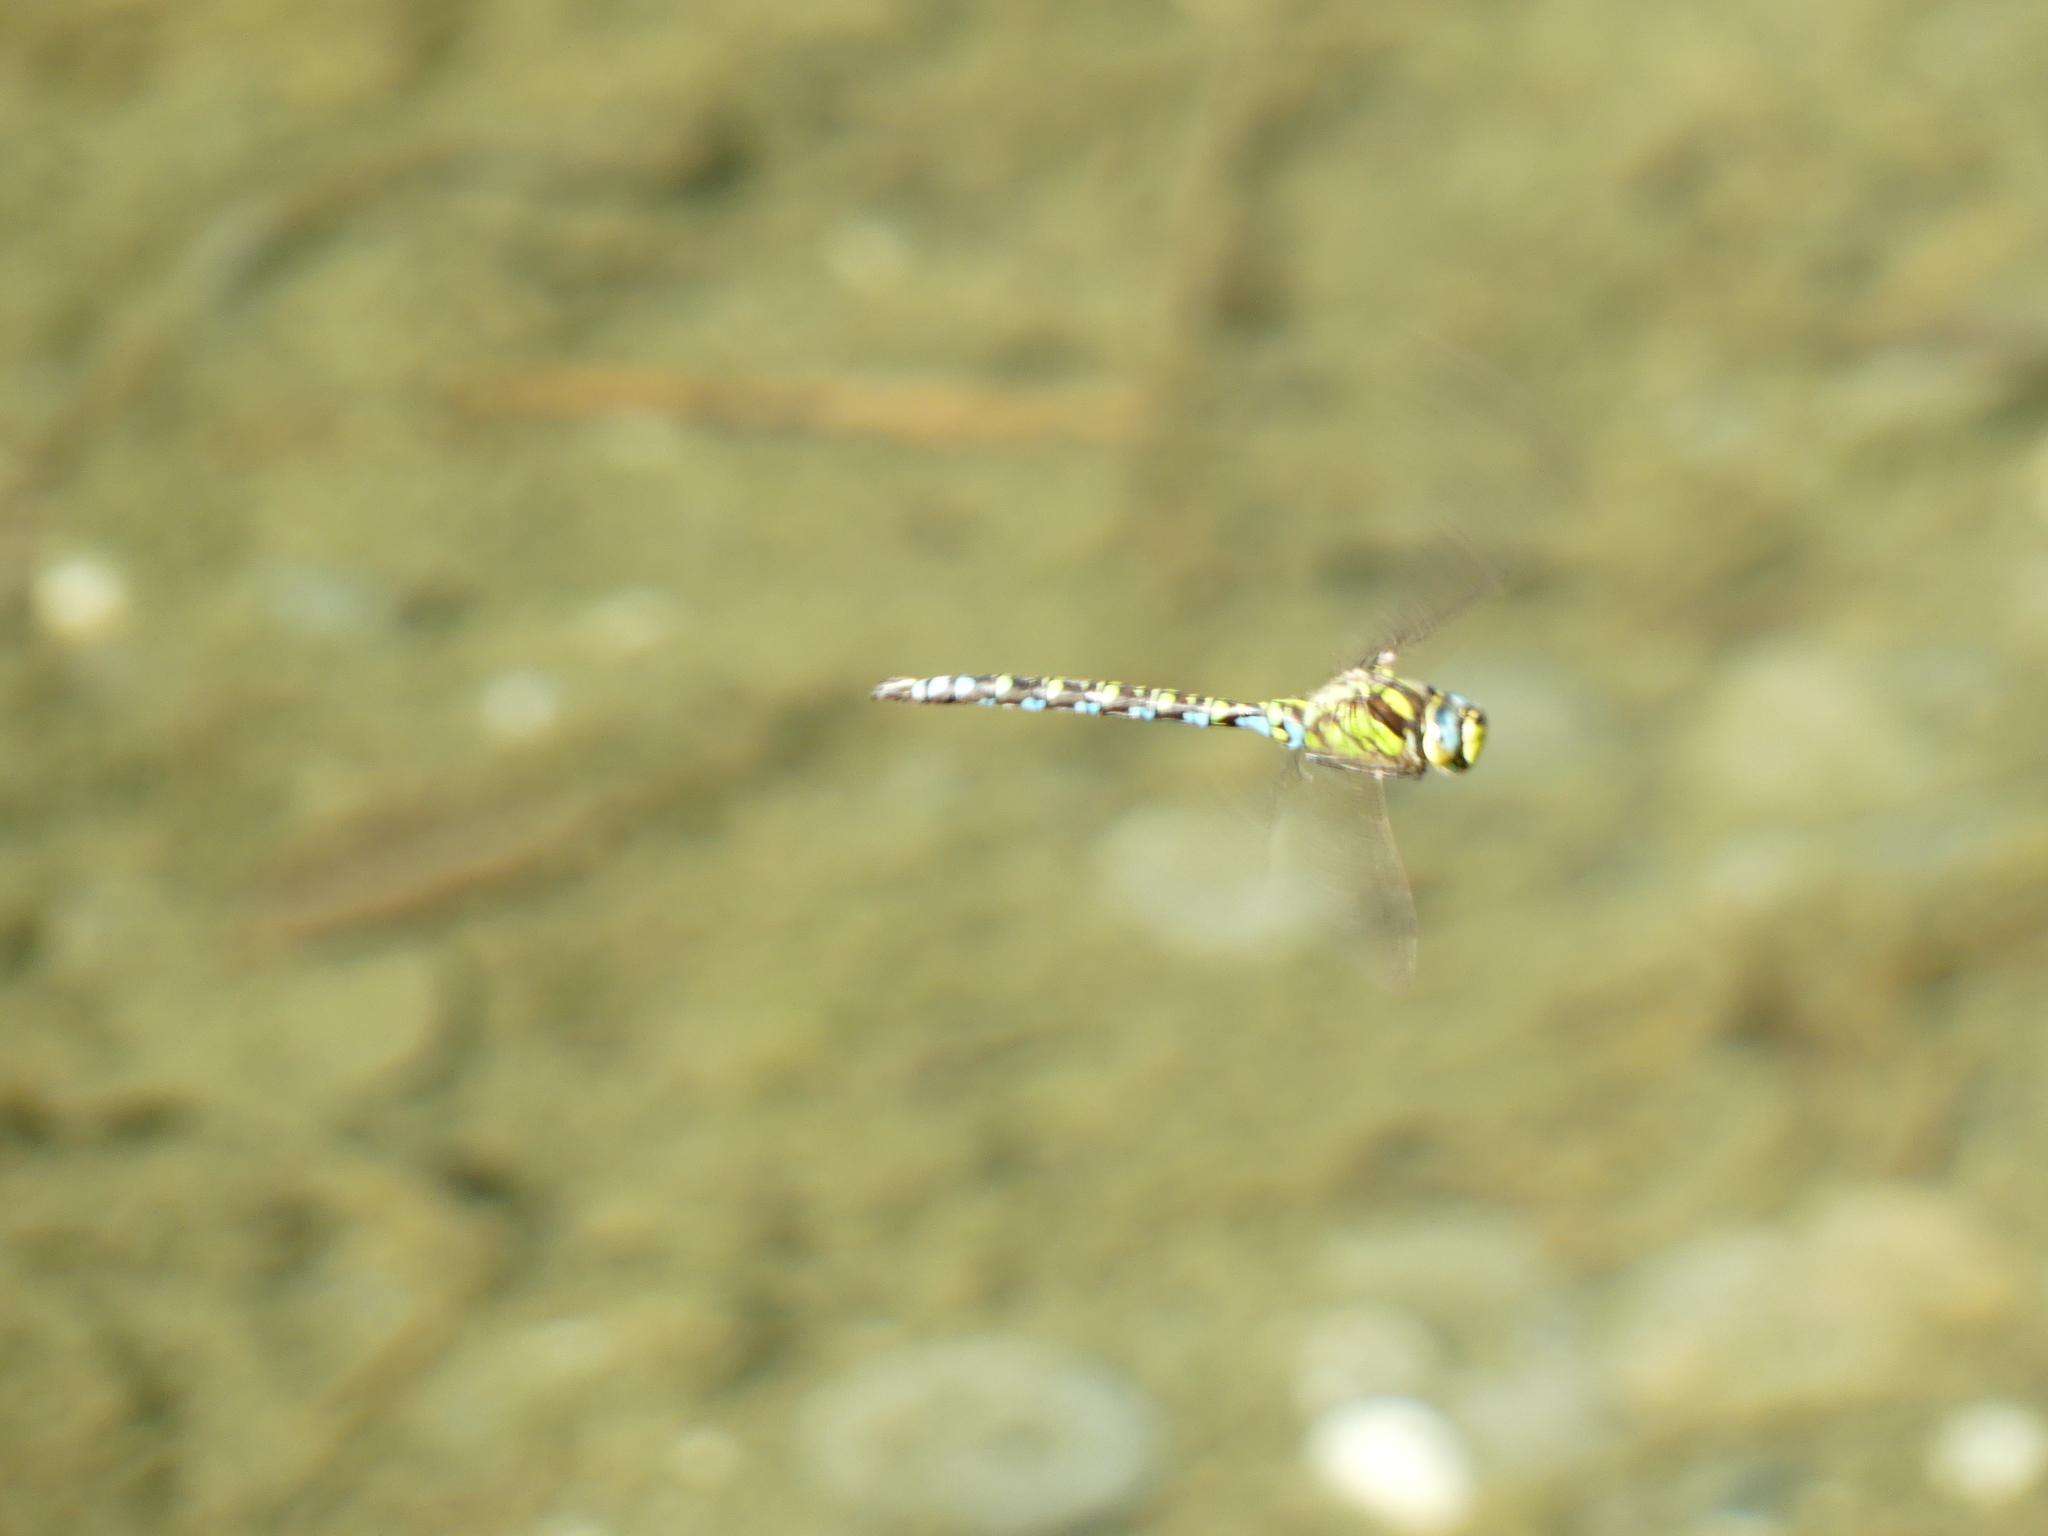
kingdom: Animalia
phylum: Arthropoda
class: Insecta
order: Odonata
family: Aeshnidae
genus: Aeshna
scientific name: Aeshna cyanea
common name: Southern hawker
